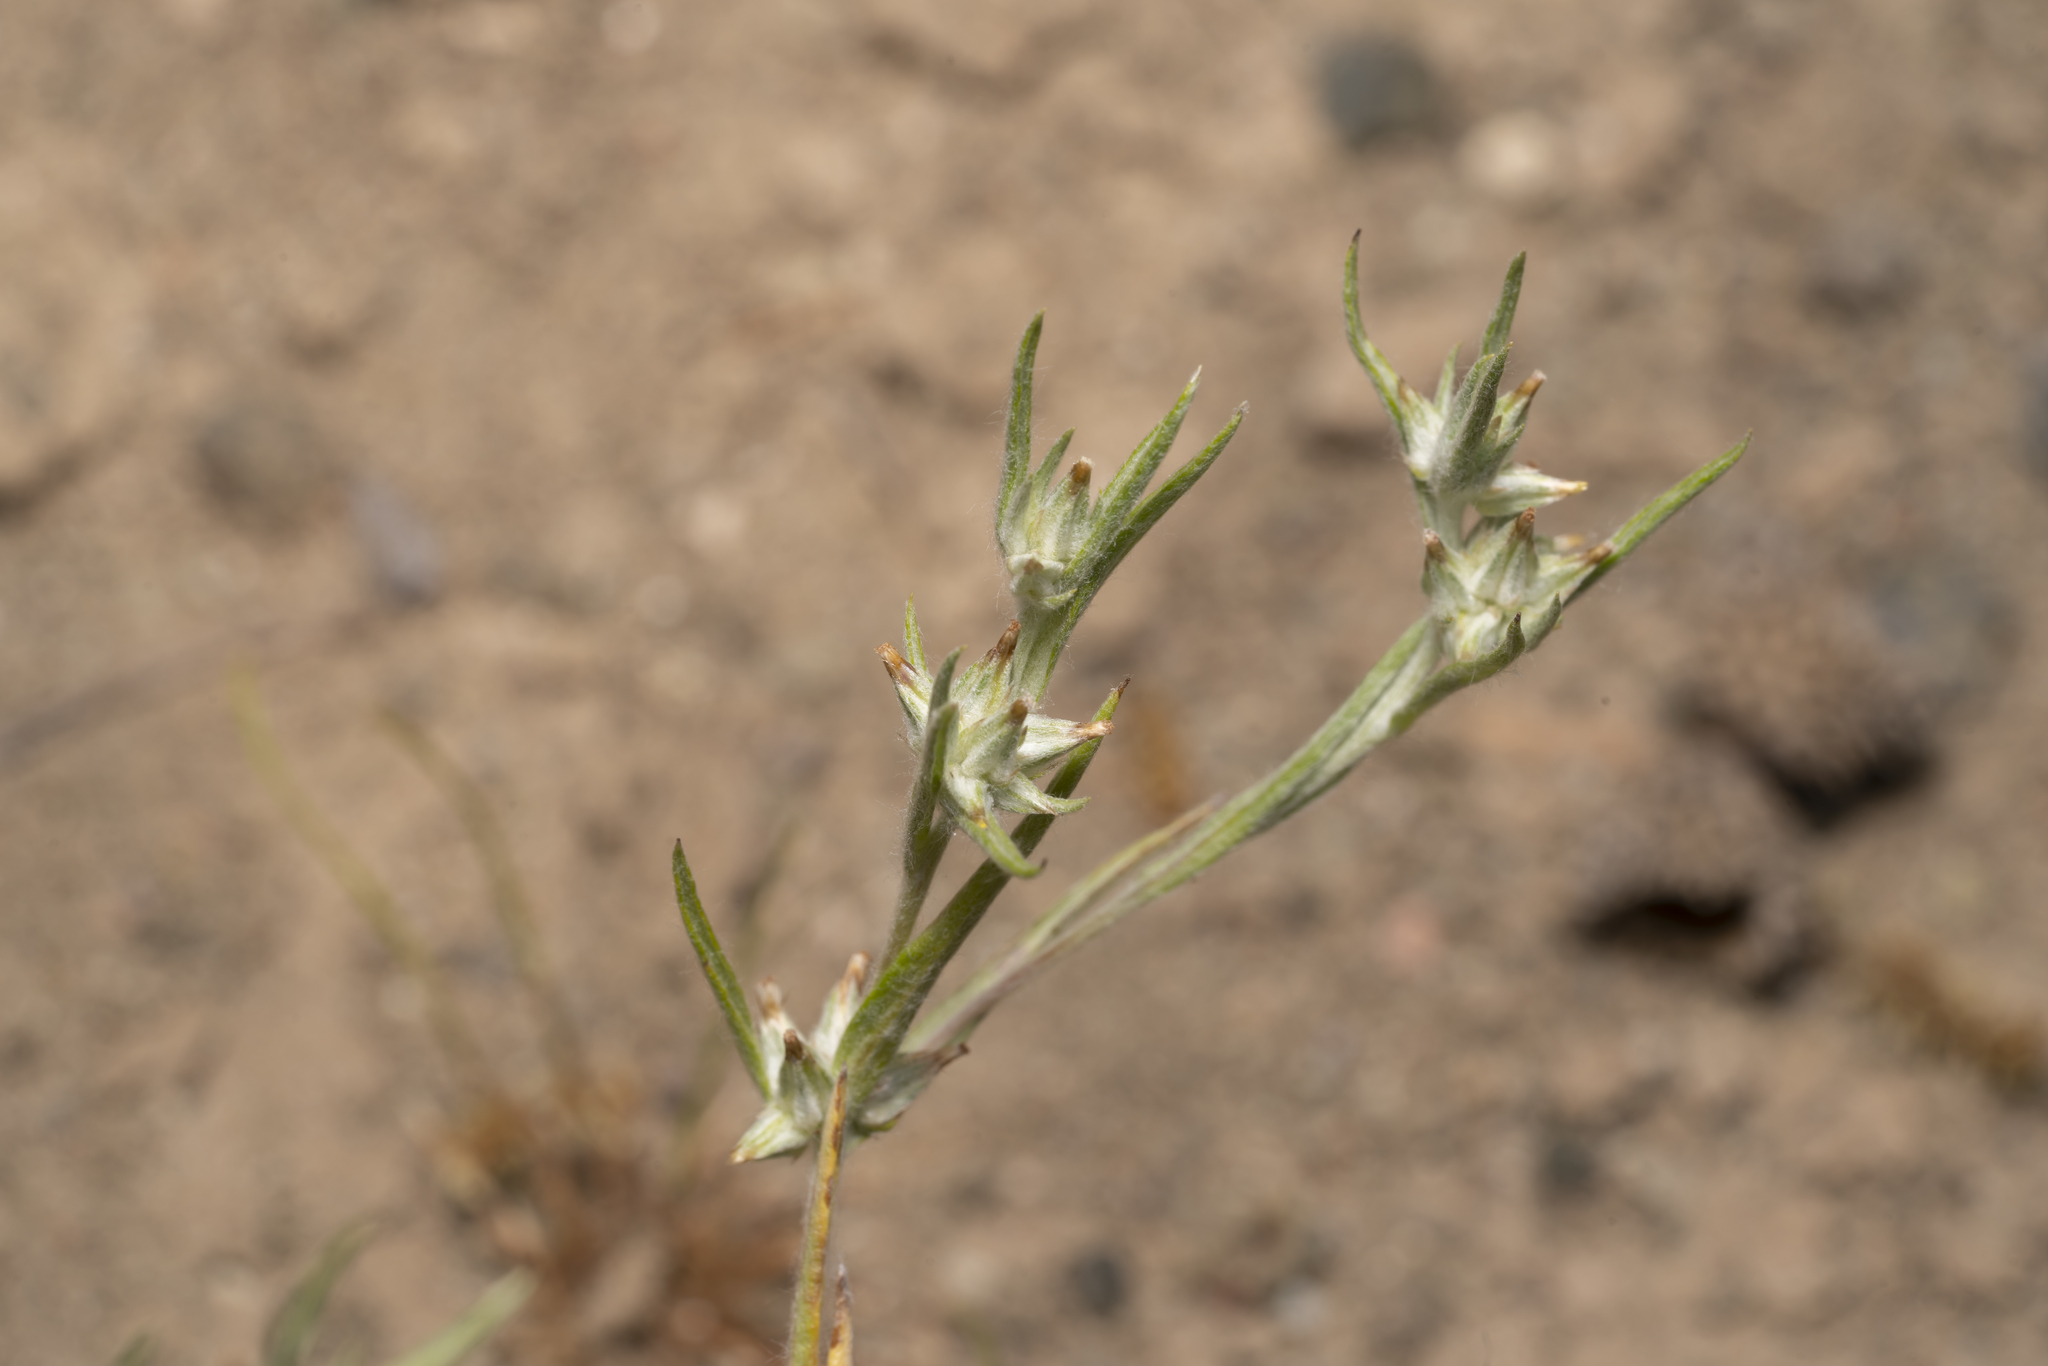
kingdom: Plantae
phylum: Tracheophyta
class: Magnoliopsida
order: Asterales
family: Asteraceae
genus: Logfia
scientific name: Logfia gallica
